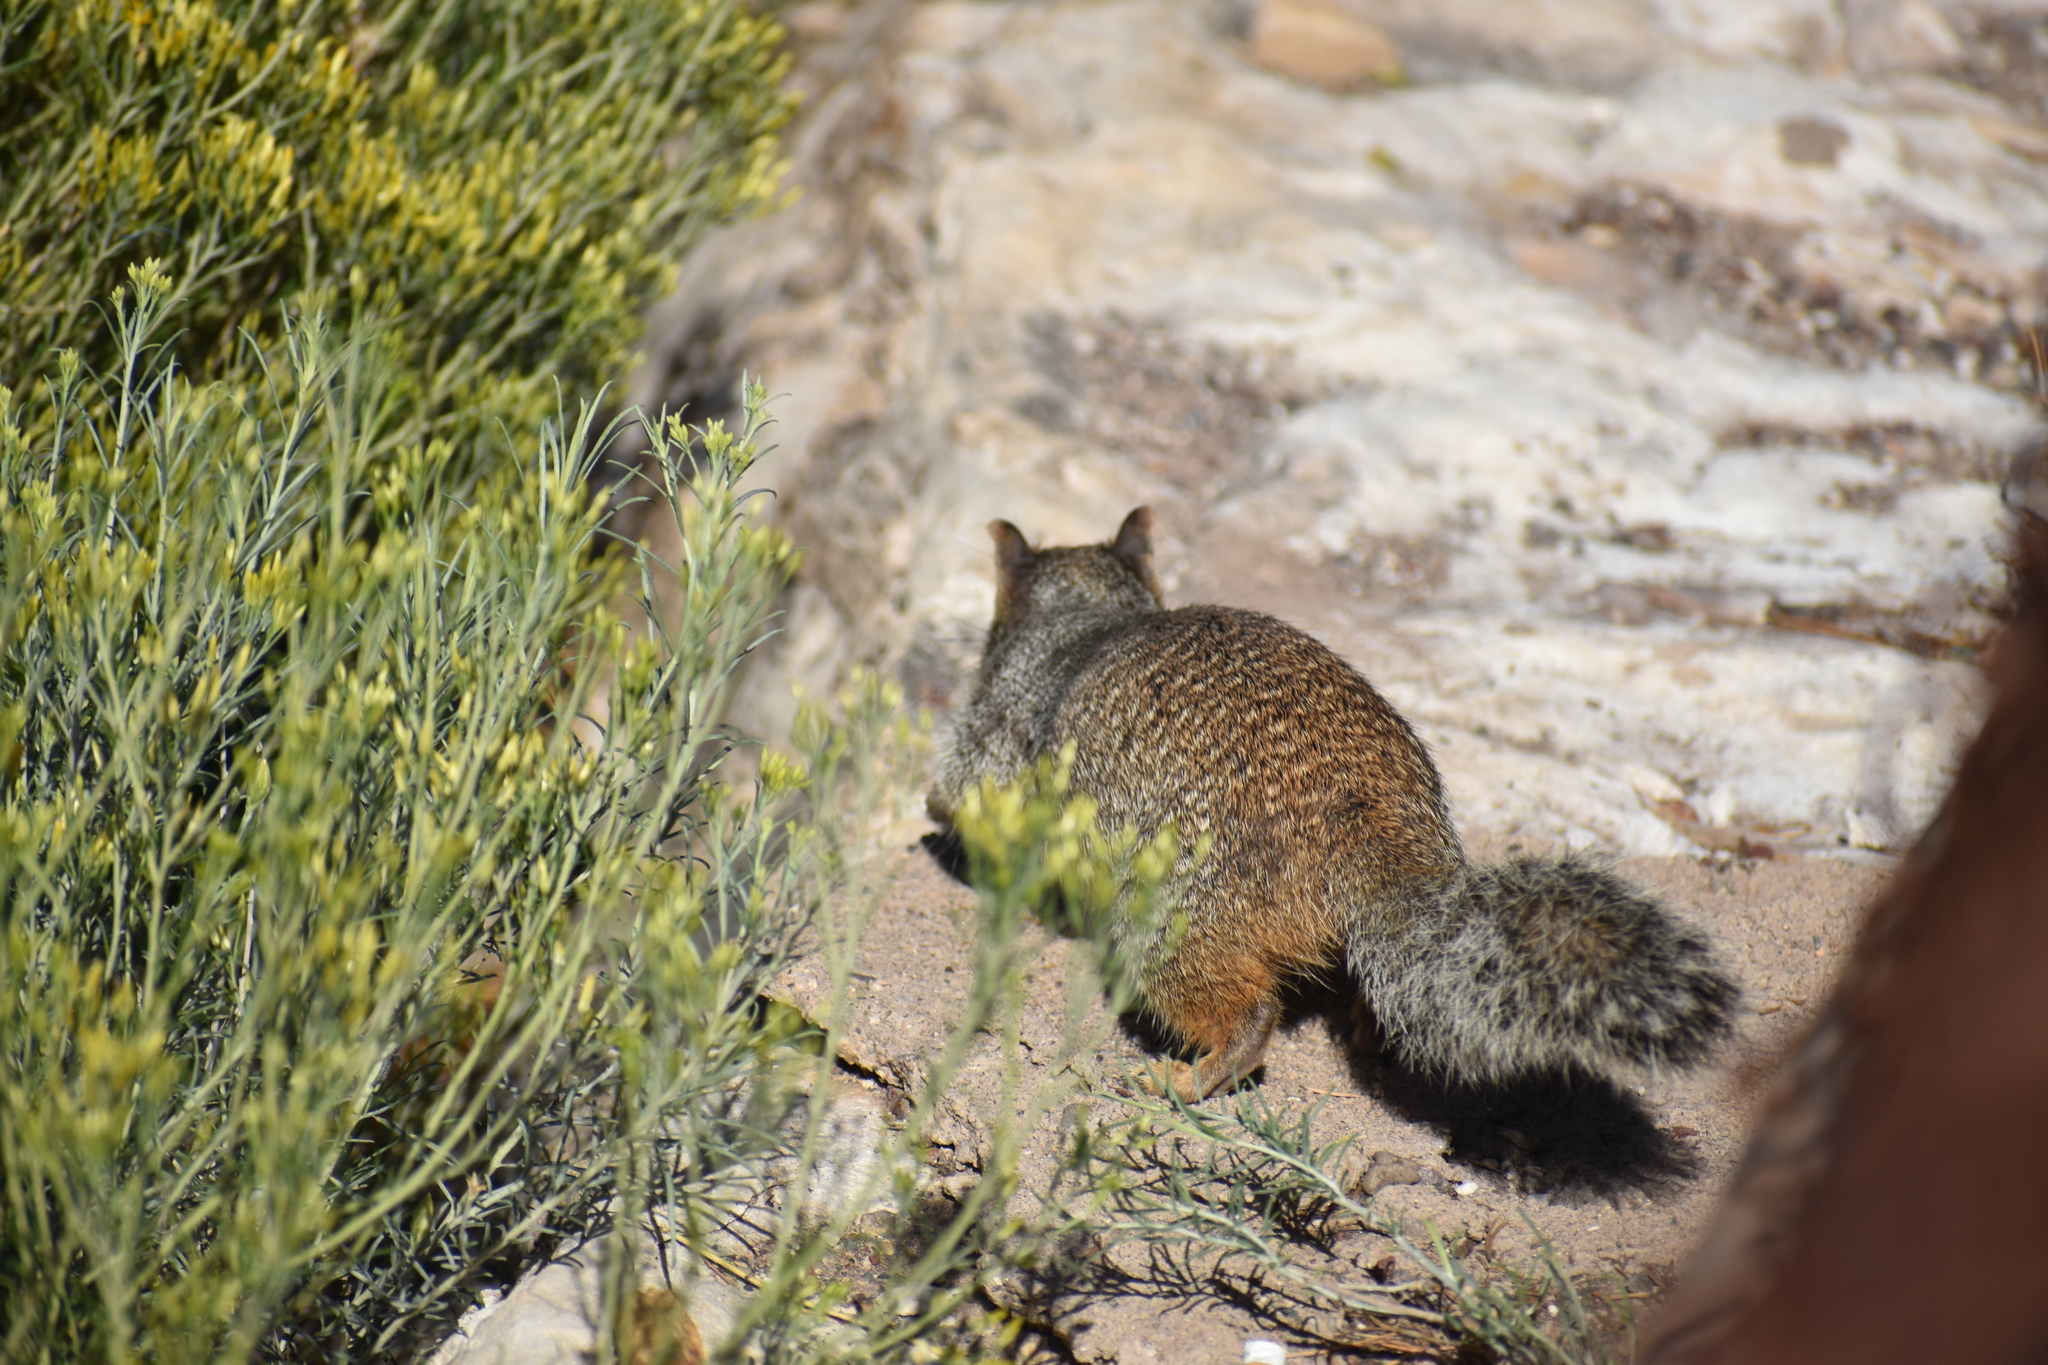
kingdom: Animalia
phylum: Chordata
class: Mammalia
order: Rodentia
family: Sciuridae
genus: Otospermophilus
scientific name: Otospermophilus variegatus
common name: Rock squirrel
